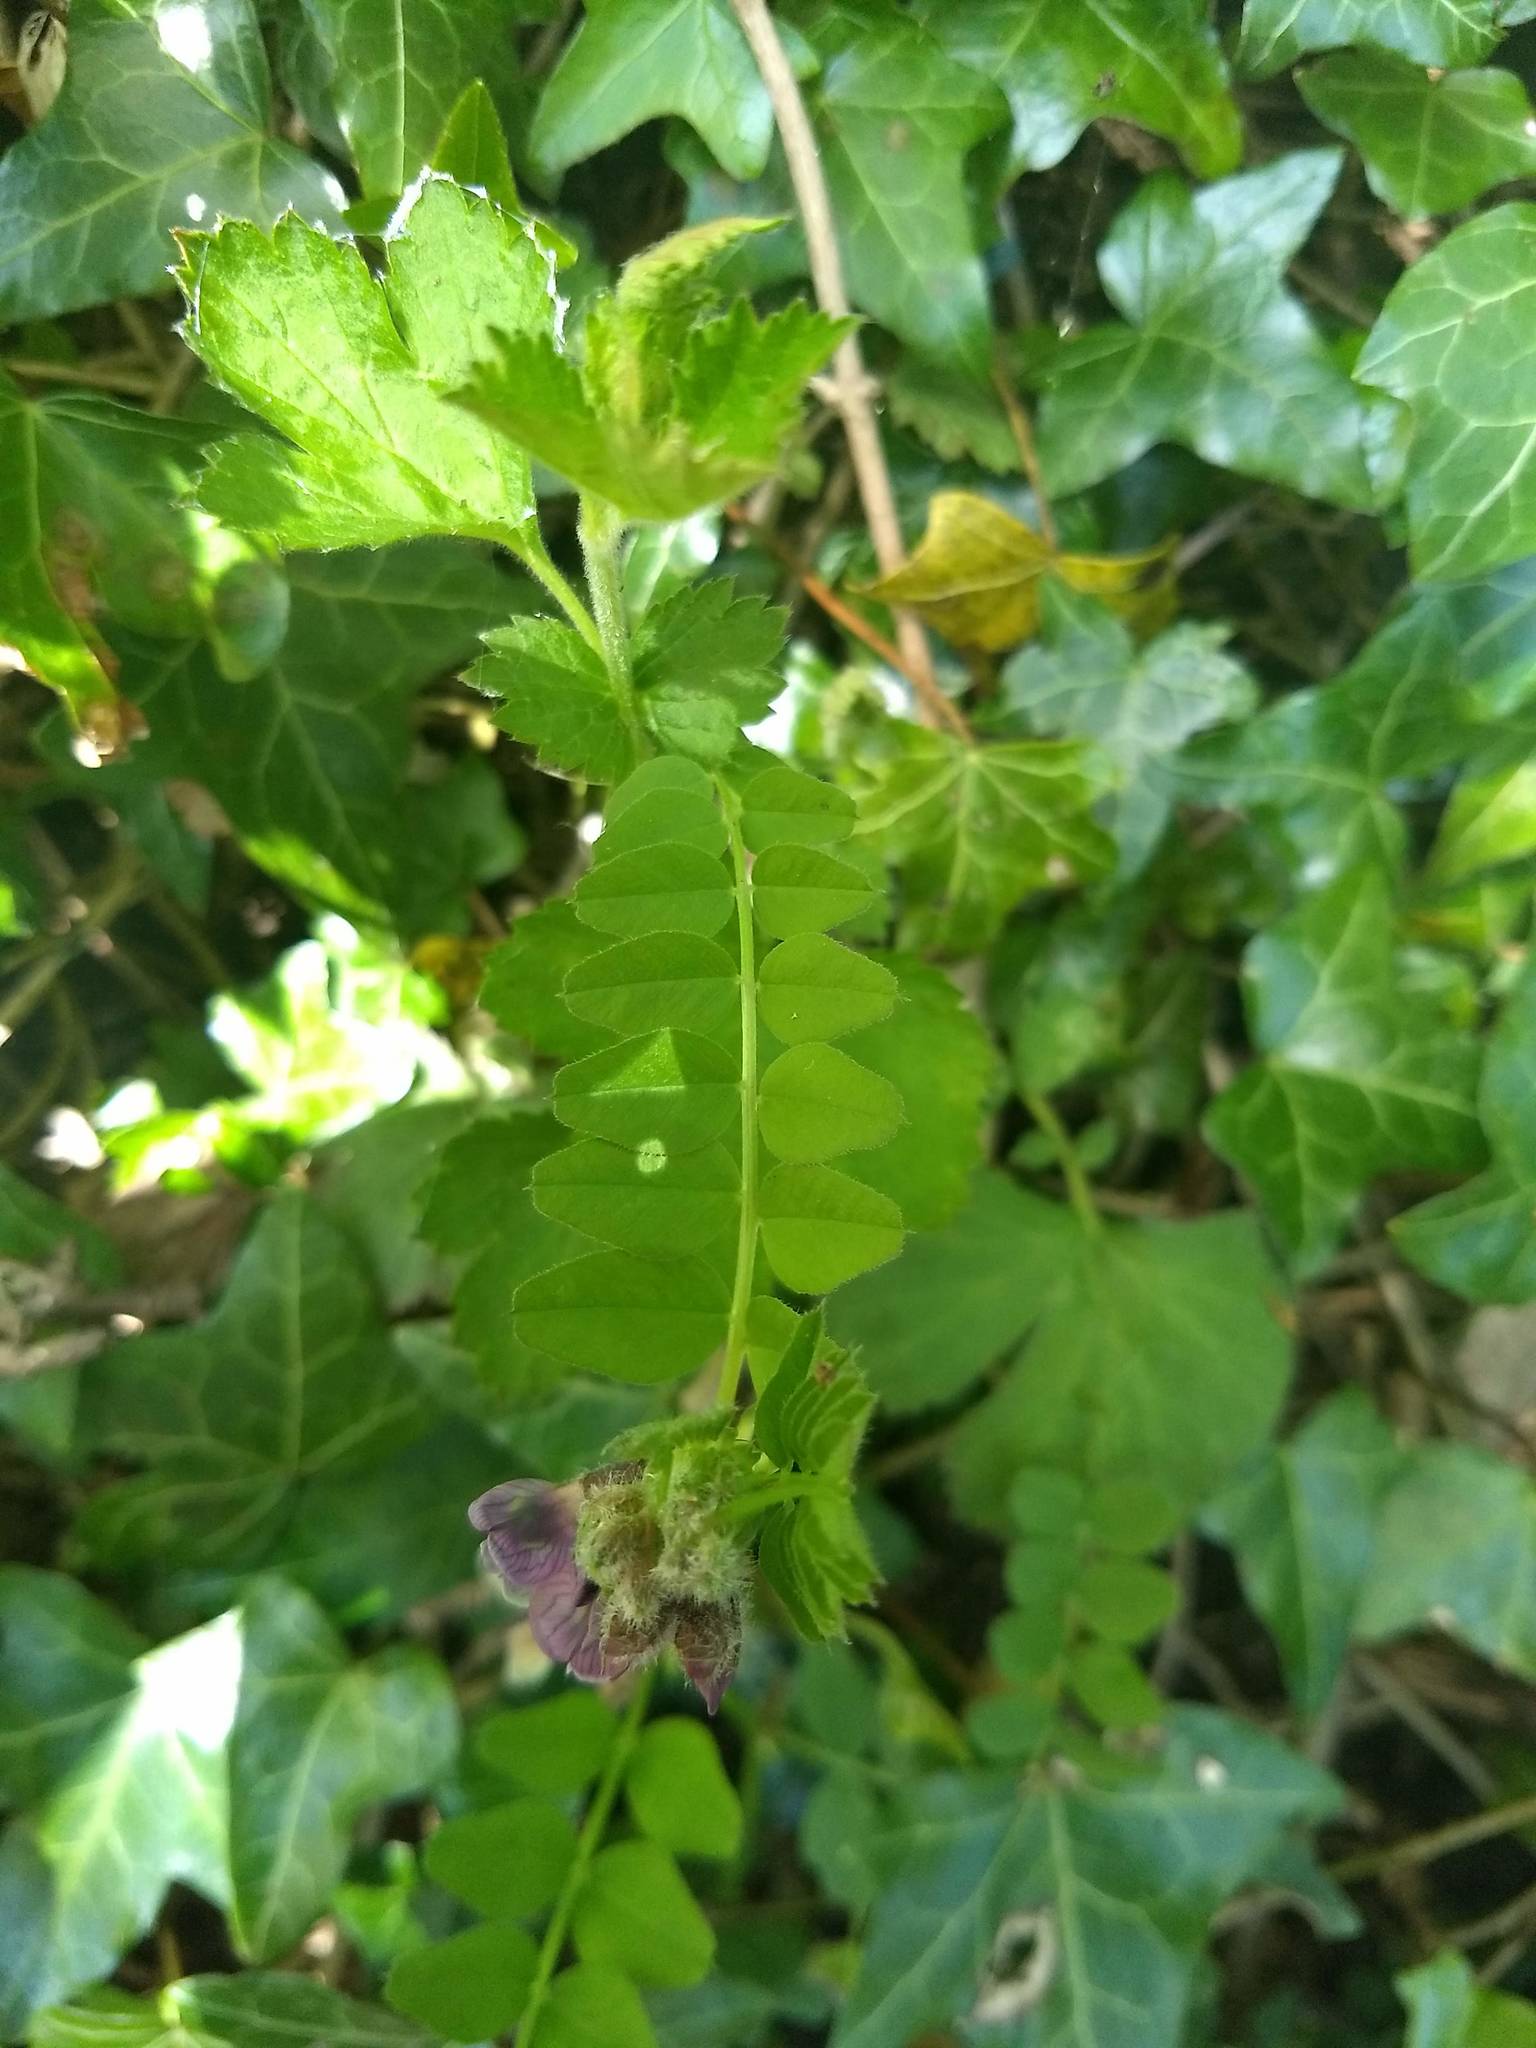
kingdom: Plantae
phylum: Tracheophyta
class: Magnoliopsida
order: Fabales
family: Fabaceae
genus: Vicia
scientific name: Vicia sepium
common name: Bush vetch
